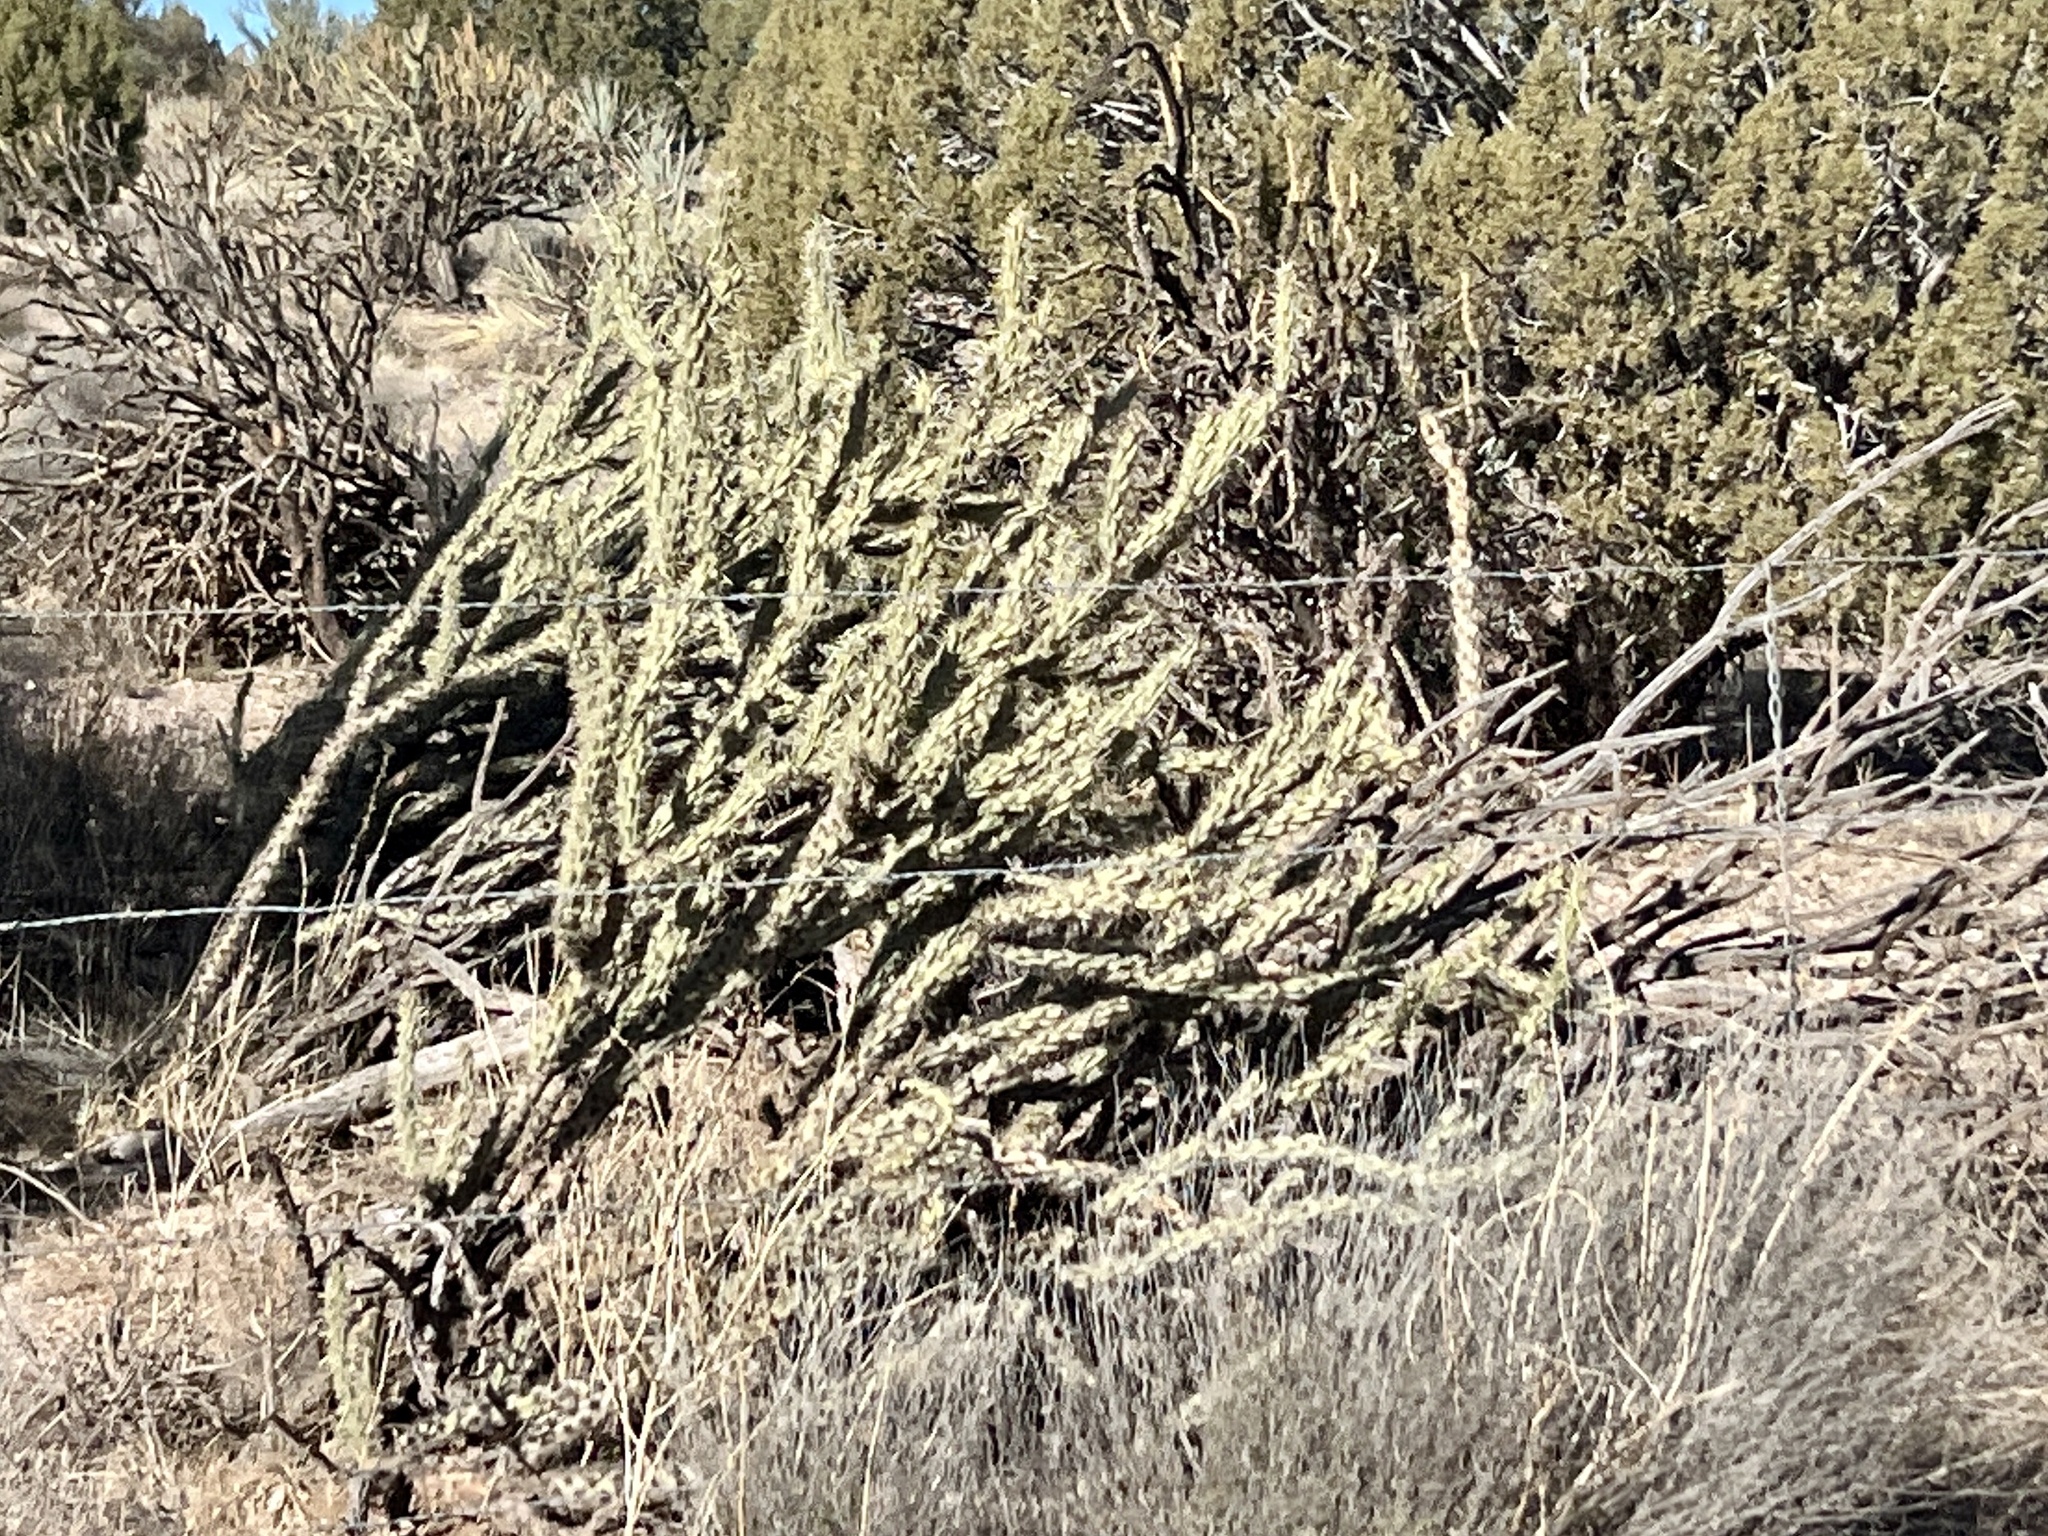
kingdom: Plantae
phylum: Tracheophyta
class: Magnoliopsida
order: Caryophyllales
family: Cactaceae
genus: Cylindropuntia
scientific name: Cylindropuntia acanthocarpa
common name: Buckhorn cholla
